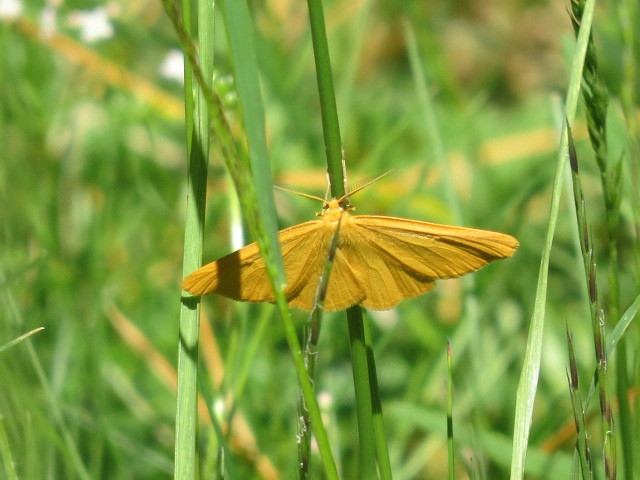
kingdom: Animalia
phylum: Arthropoda
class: Insecta
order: Lepidoptera
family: Geometridae
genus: Crocota
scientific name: Crocota tinctaria
